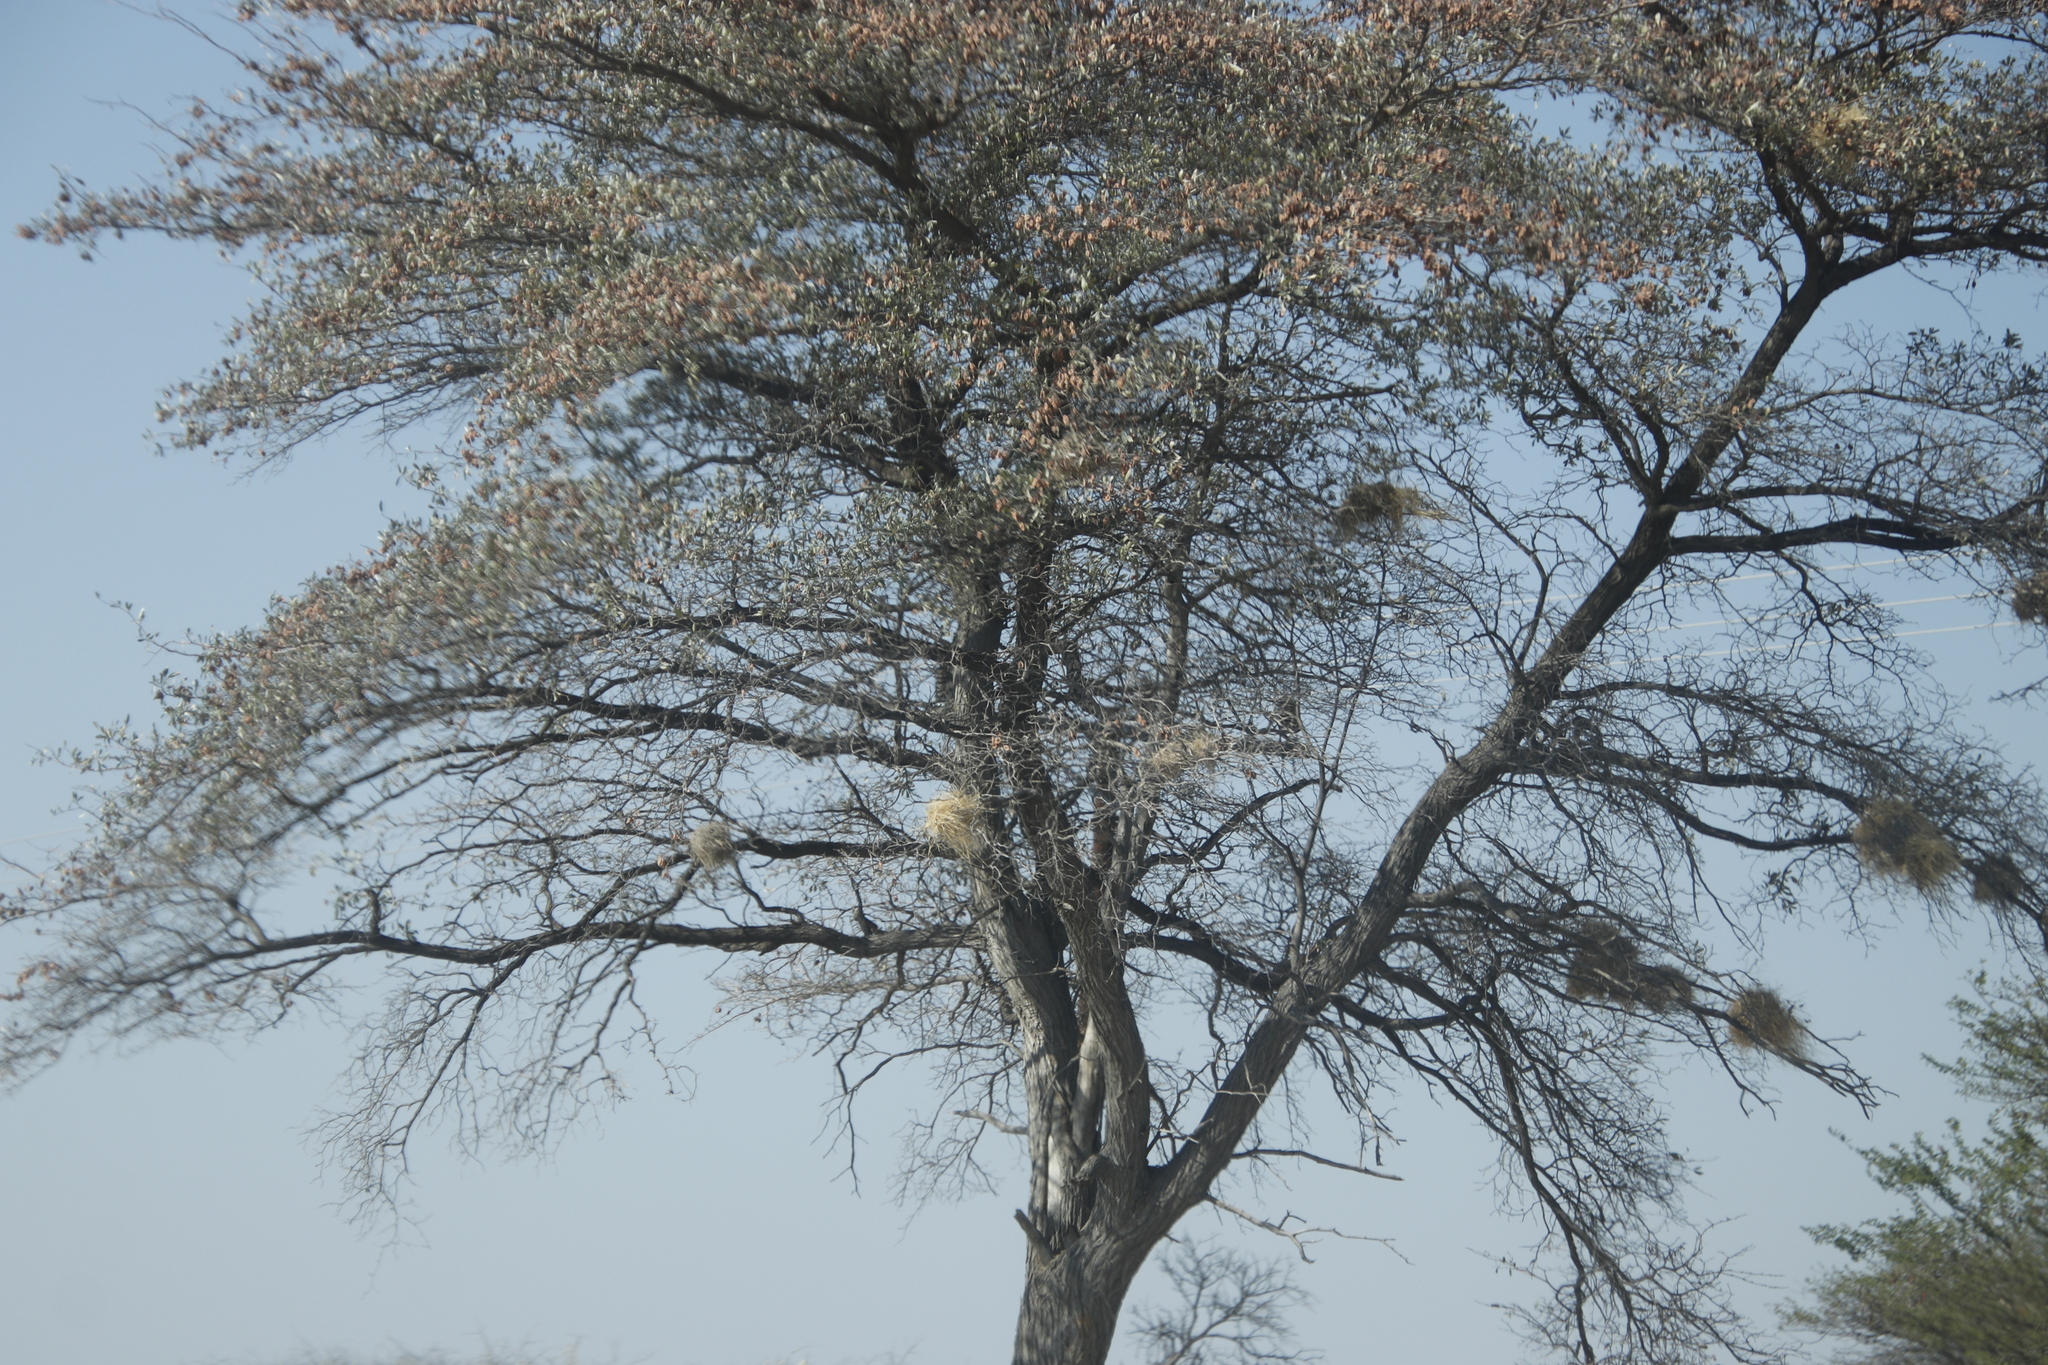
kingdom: Animalia
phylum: Chordata
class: Aves
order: Passeriformes
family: Passeridae
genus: Plocepasser
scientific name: Plocepasser mahali
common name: White-browed sparrow-weaver
